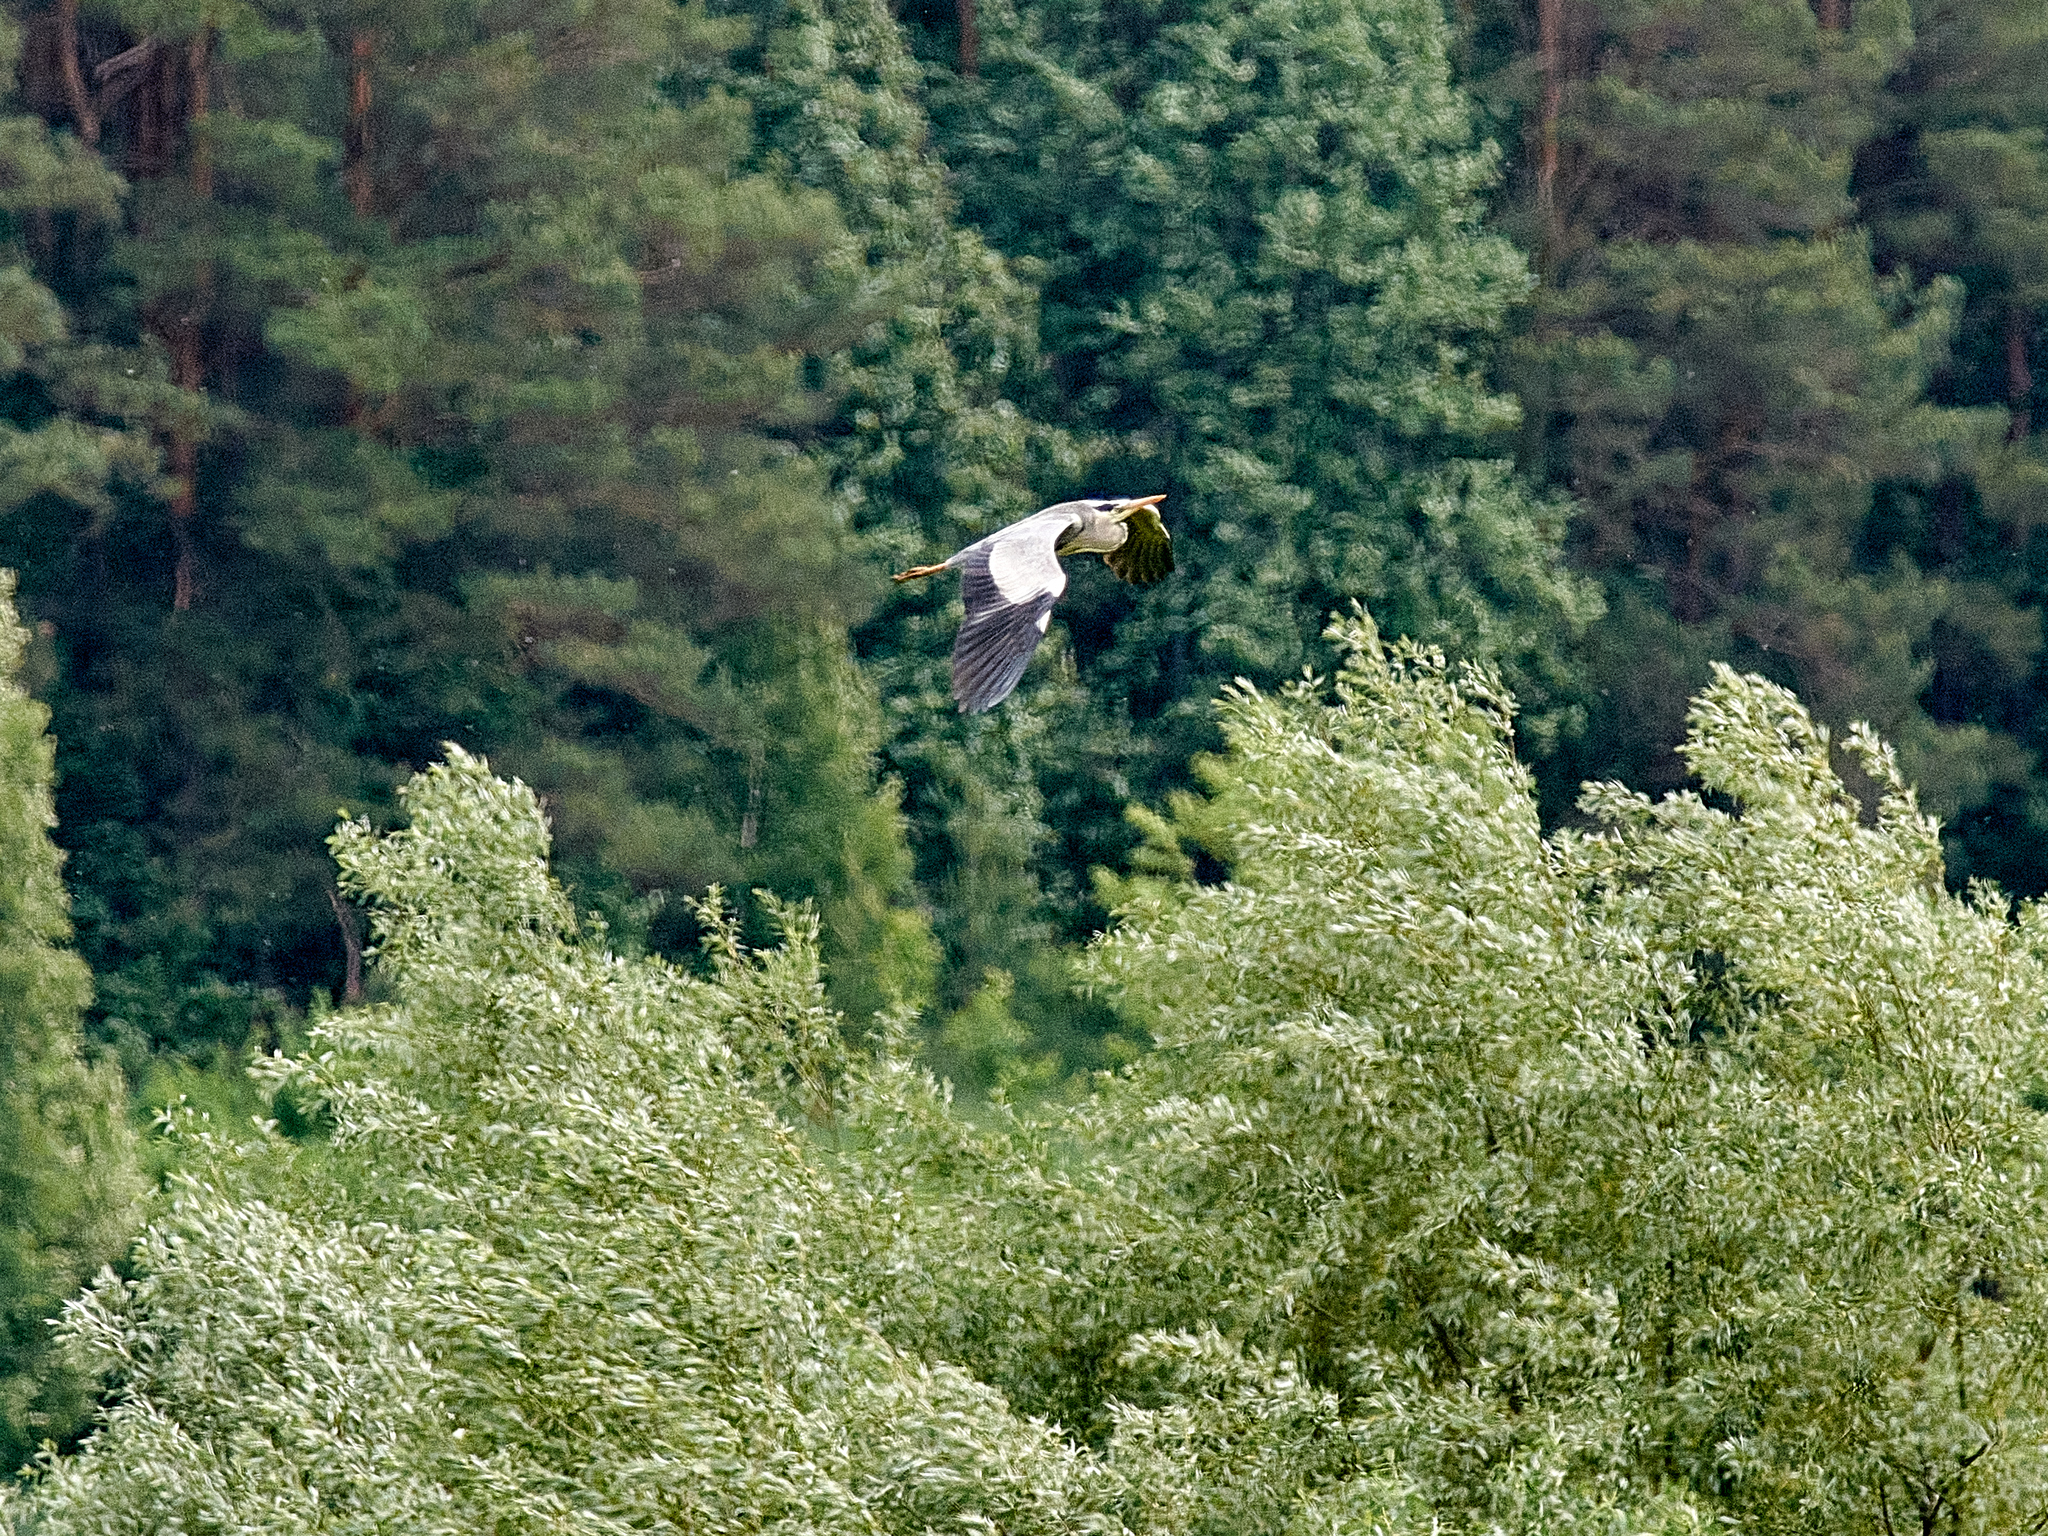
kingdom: Animalia
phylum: Chordata
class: Aves
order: Pelecaniformes
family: Ardeidae
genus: Ardea
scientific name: Ardea cinerea
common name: Grey heron
